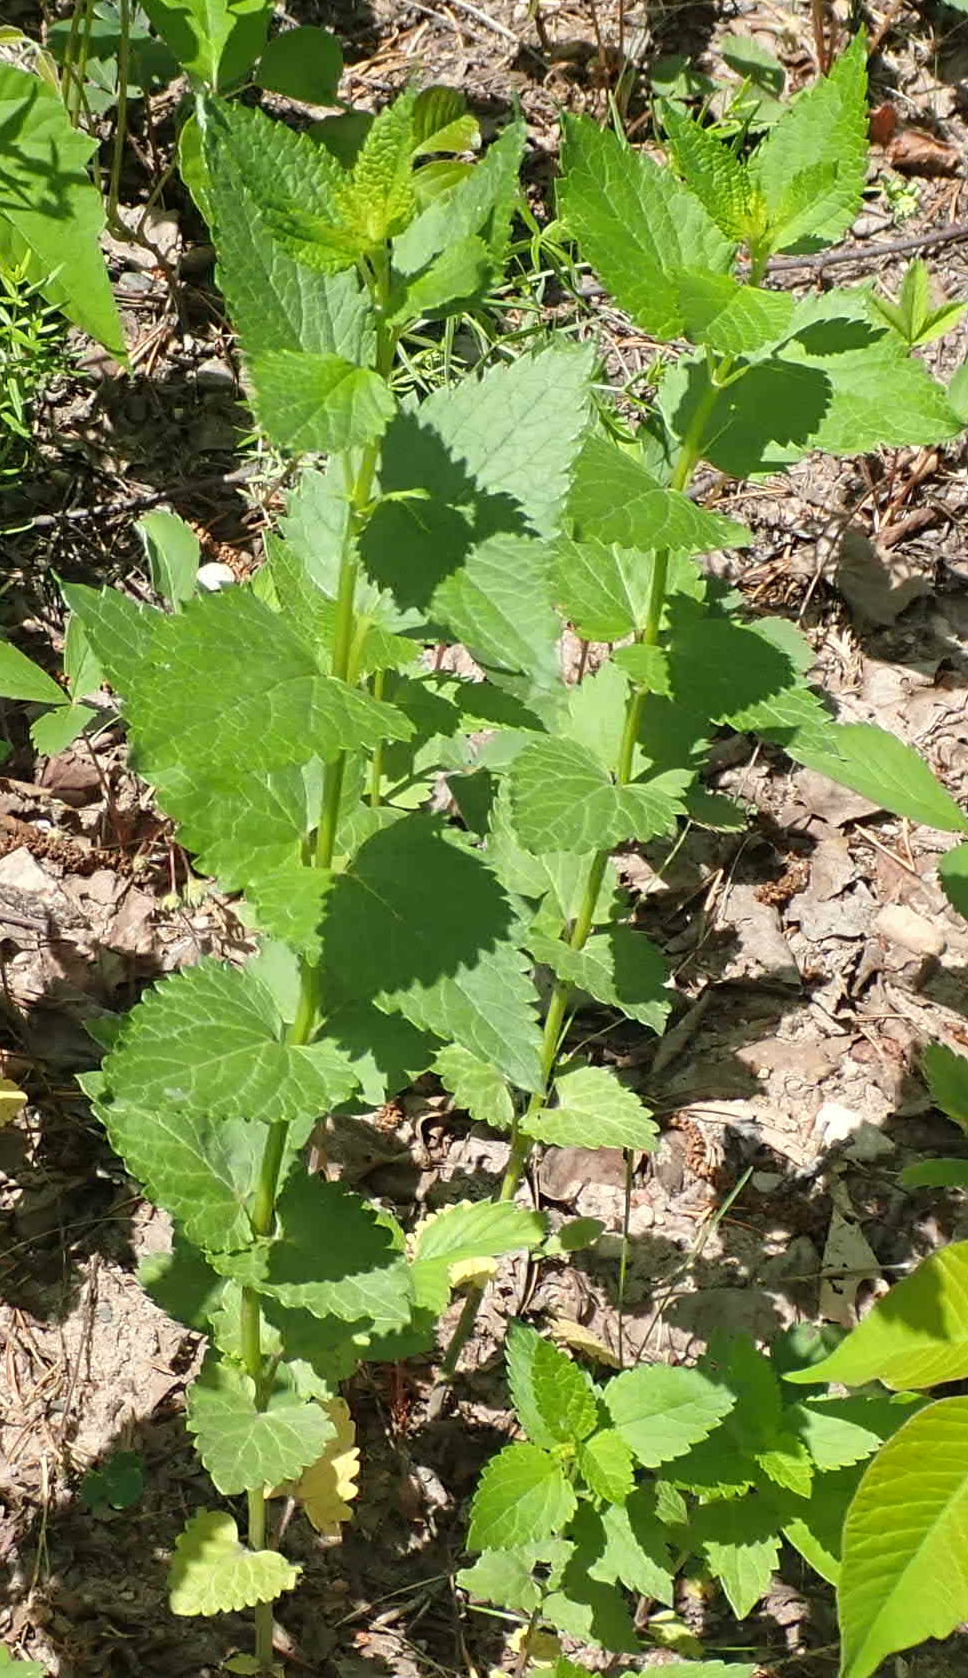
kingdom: Plantae
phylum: Tracheophyta
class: Magnoliopsida
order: Lamiales
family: Lamiaceae
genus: Agastache
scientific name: Agastache foeniculum
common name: Anise hyssop
